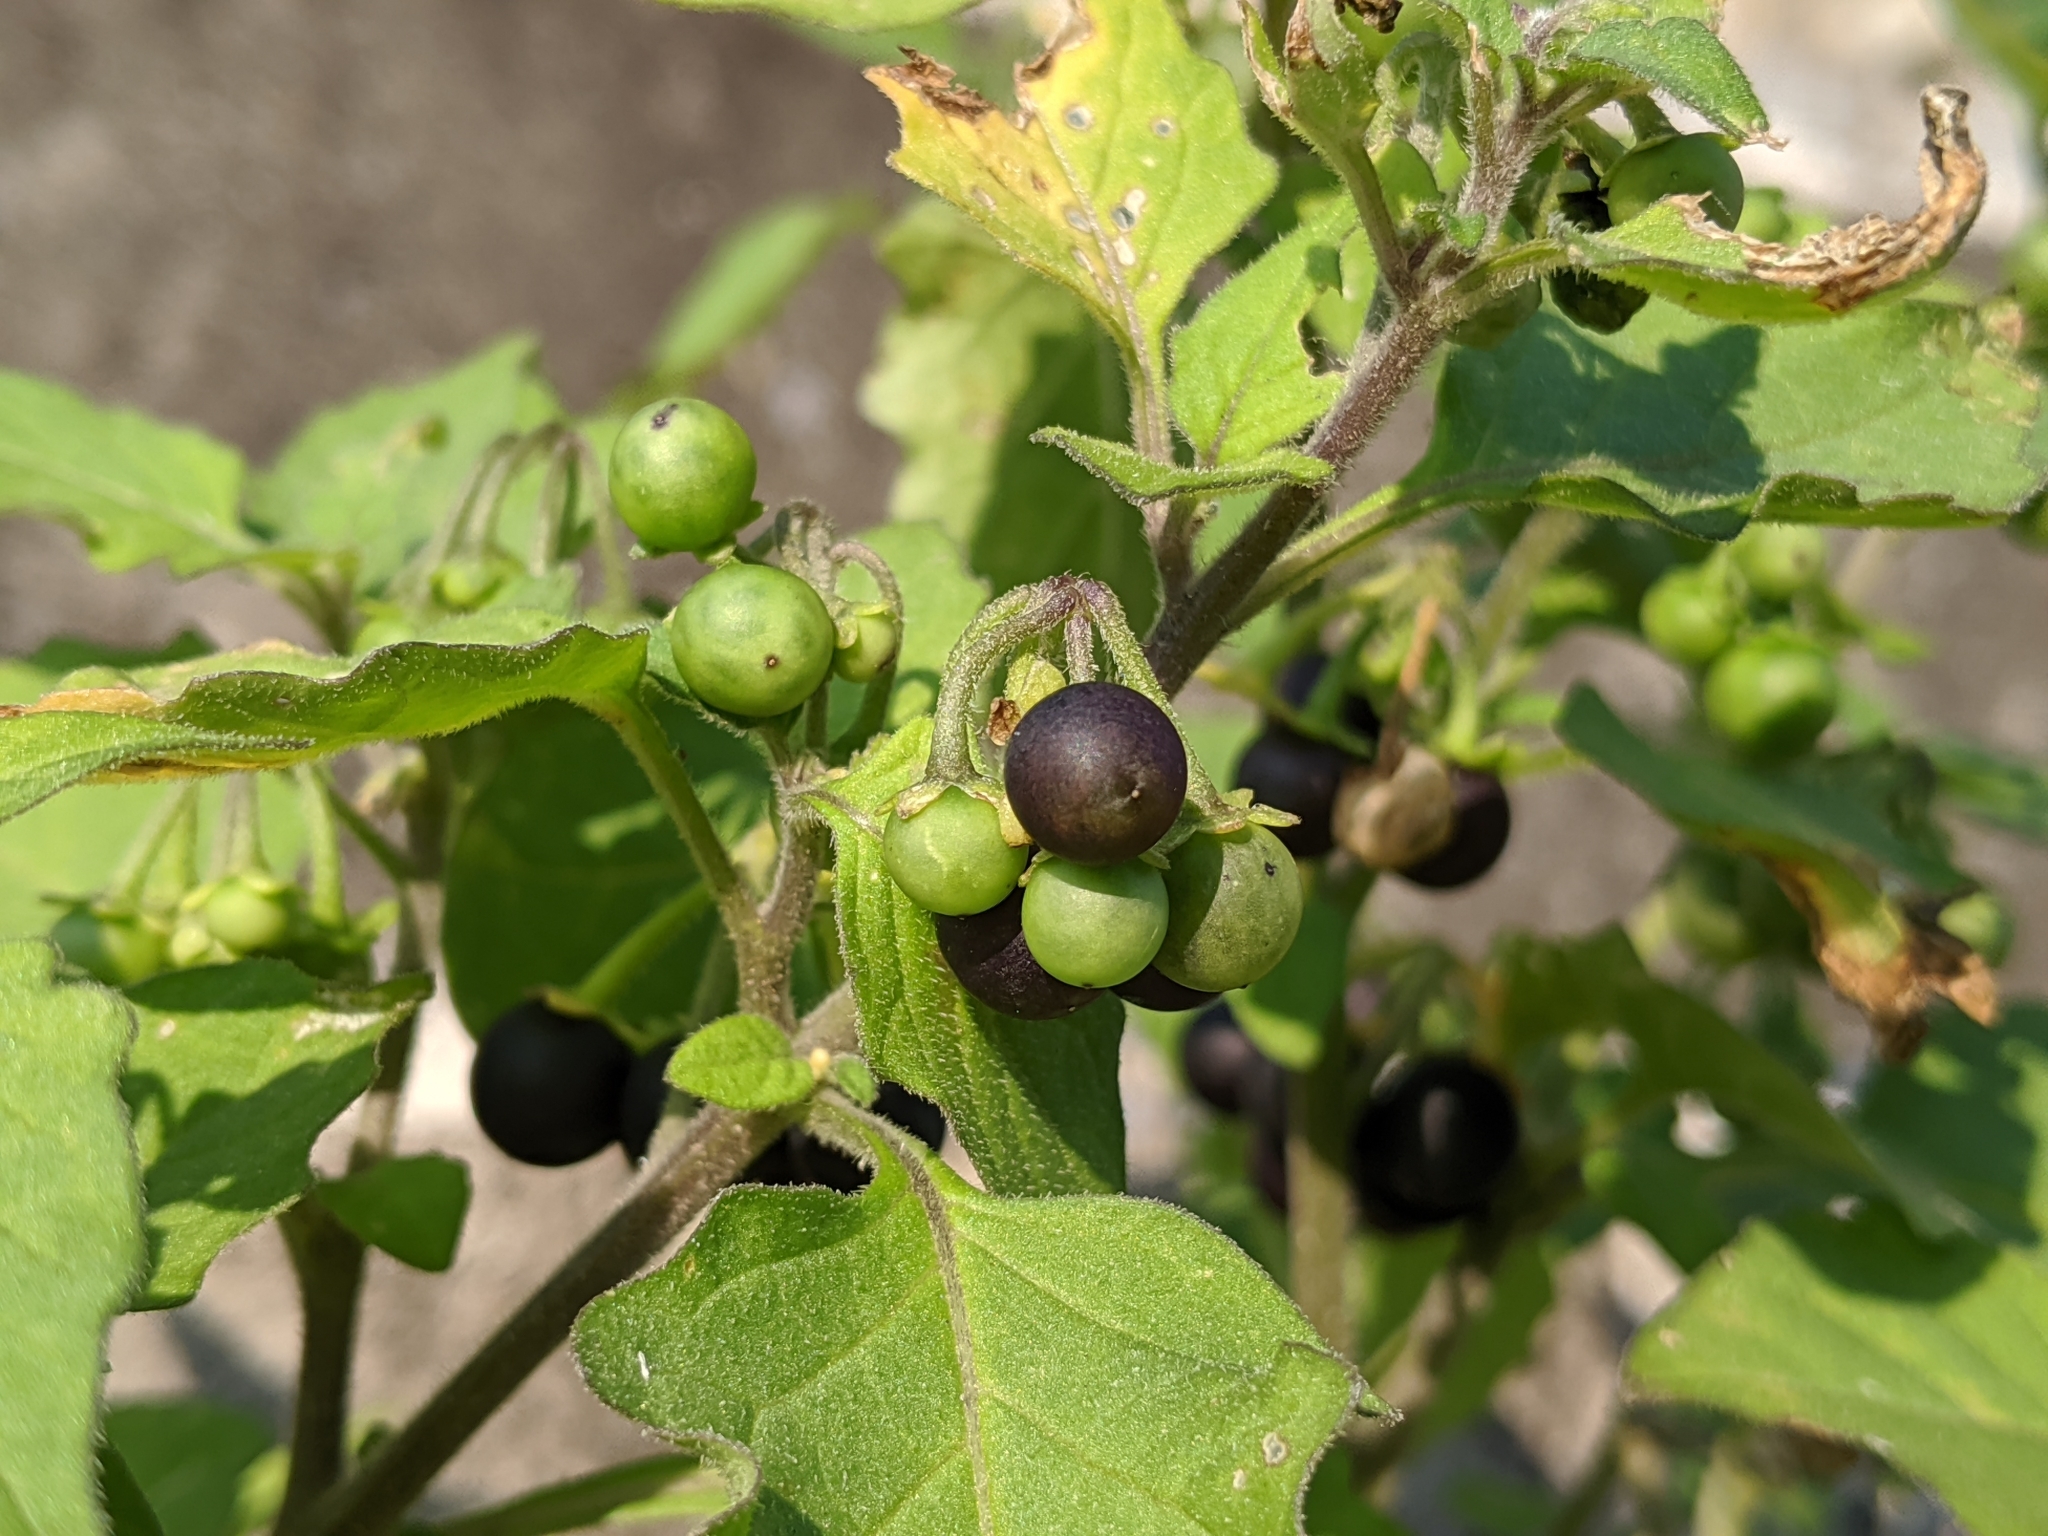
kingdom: Plantae
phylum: Tracheophyta
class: Magnoliopsida
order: Solanales
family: Solanaceae
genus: Solanum
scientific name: Solanum nigrum
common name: Black nightshade
